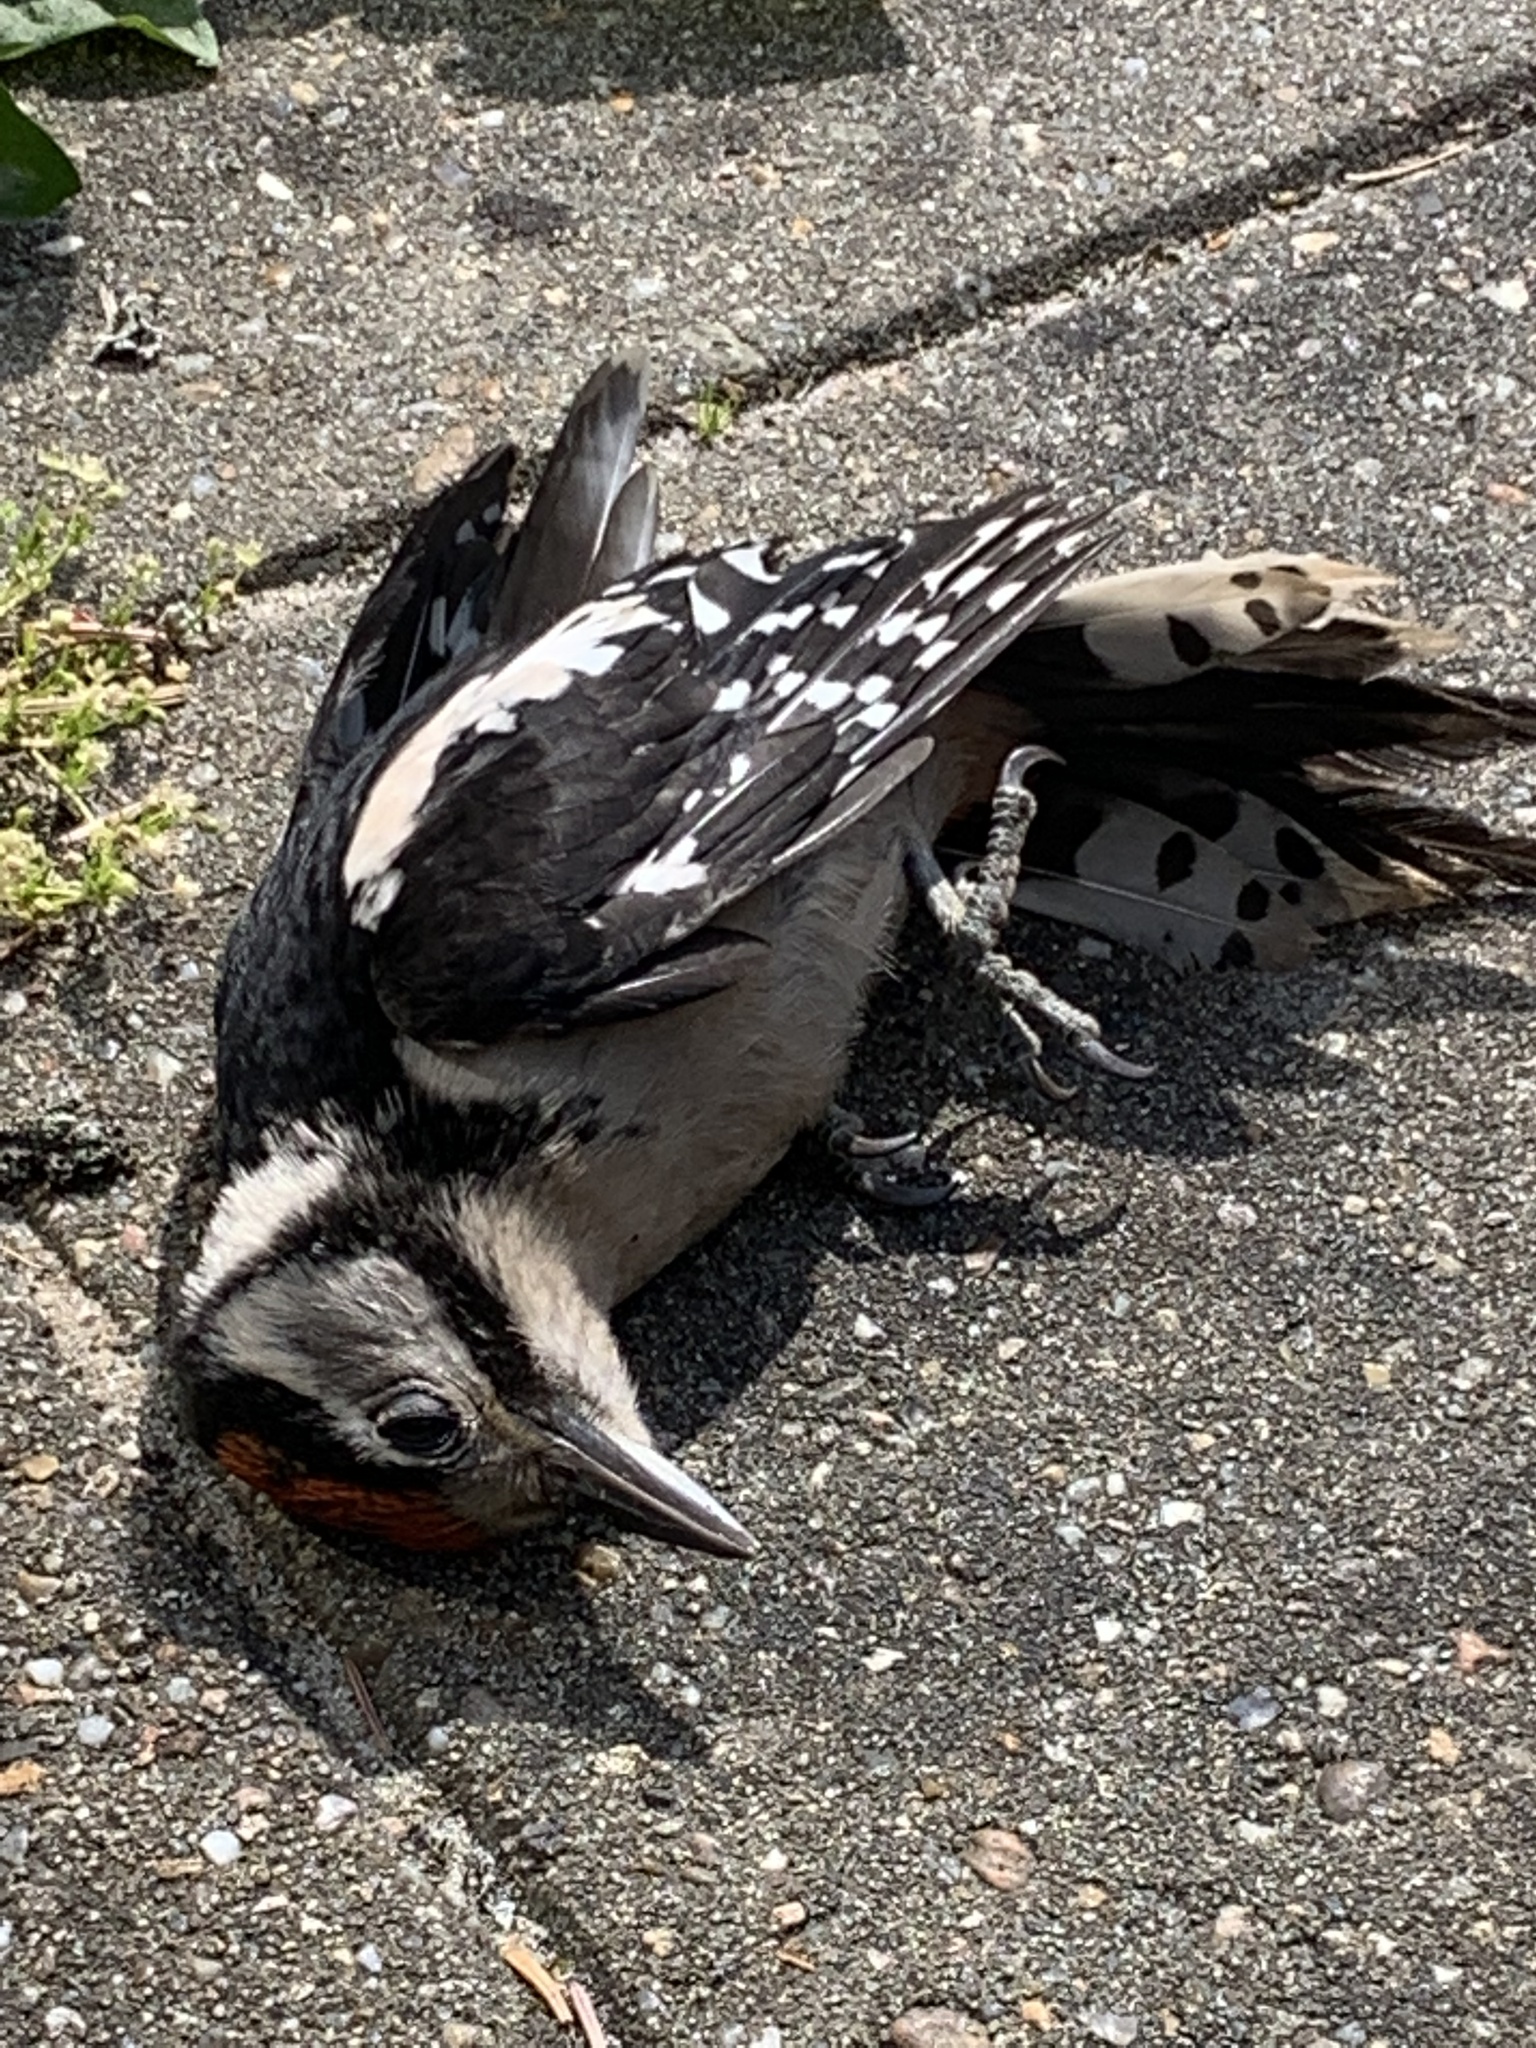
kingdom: Animalia
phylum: Chordata
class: Aves
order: Piciformes
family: Picidae
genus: Dendrocopos
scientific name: Dendrocopos major
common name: Great spotted woodpecker
